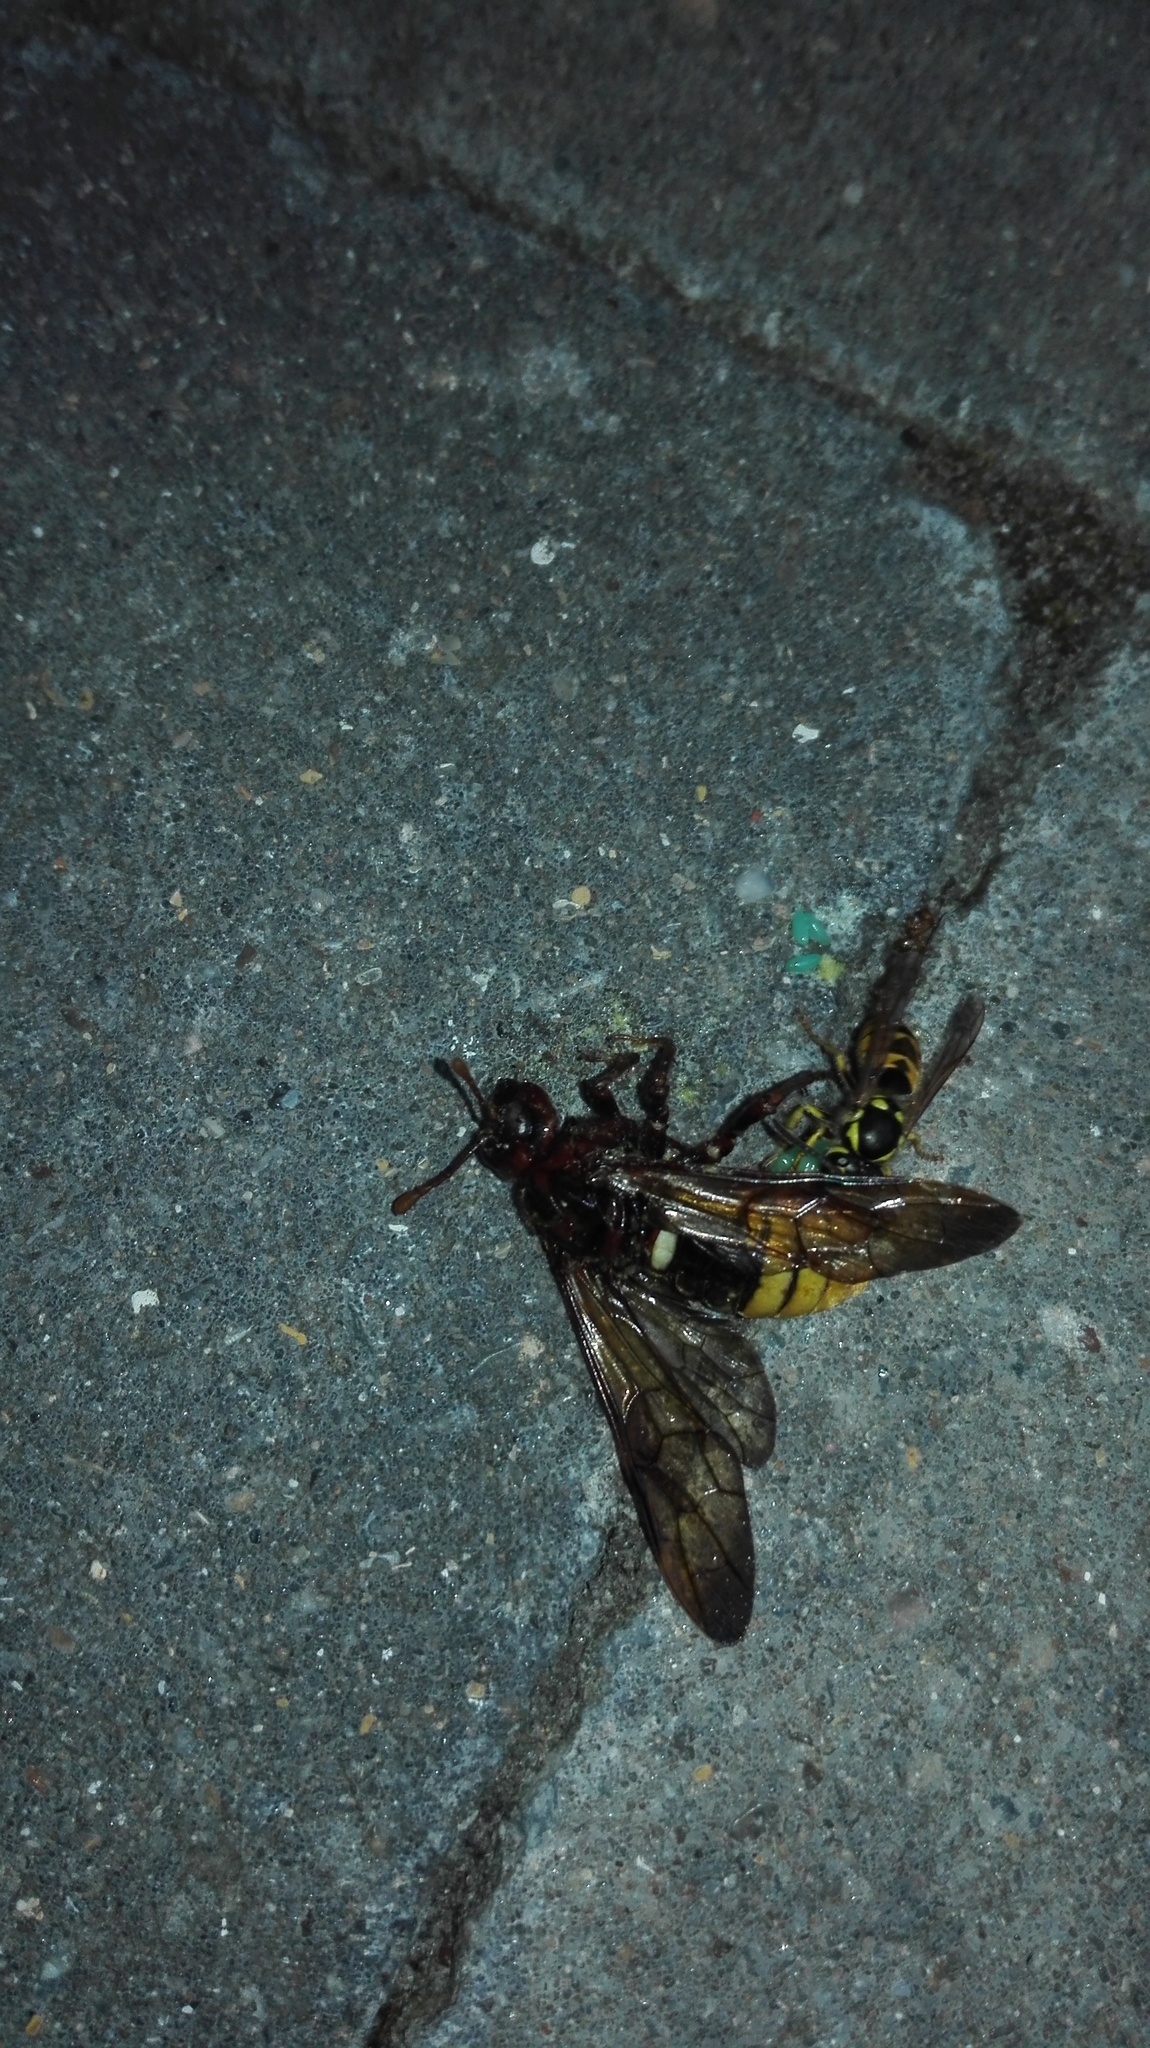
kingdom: Animalia
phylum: Arthropoda
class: Insecta
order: Hymenoptera
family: Cimbicidae
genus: Cimbex
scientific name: Cimbex connatus
